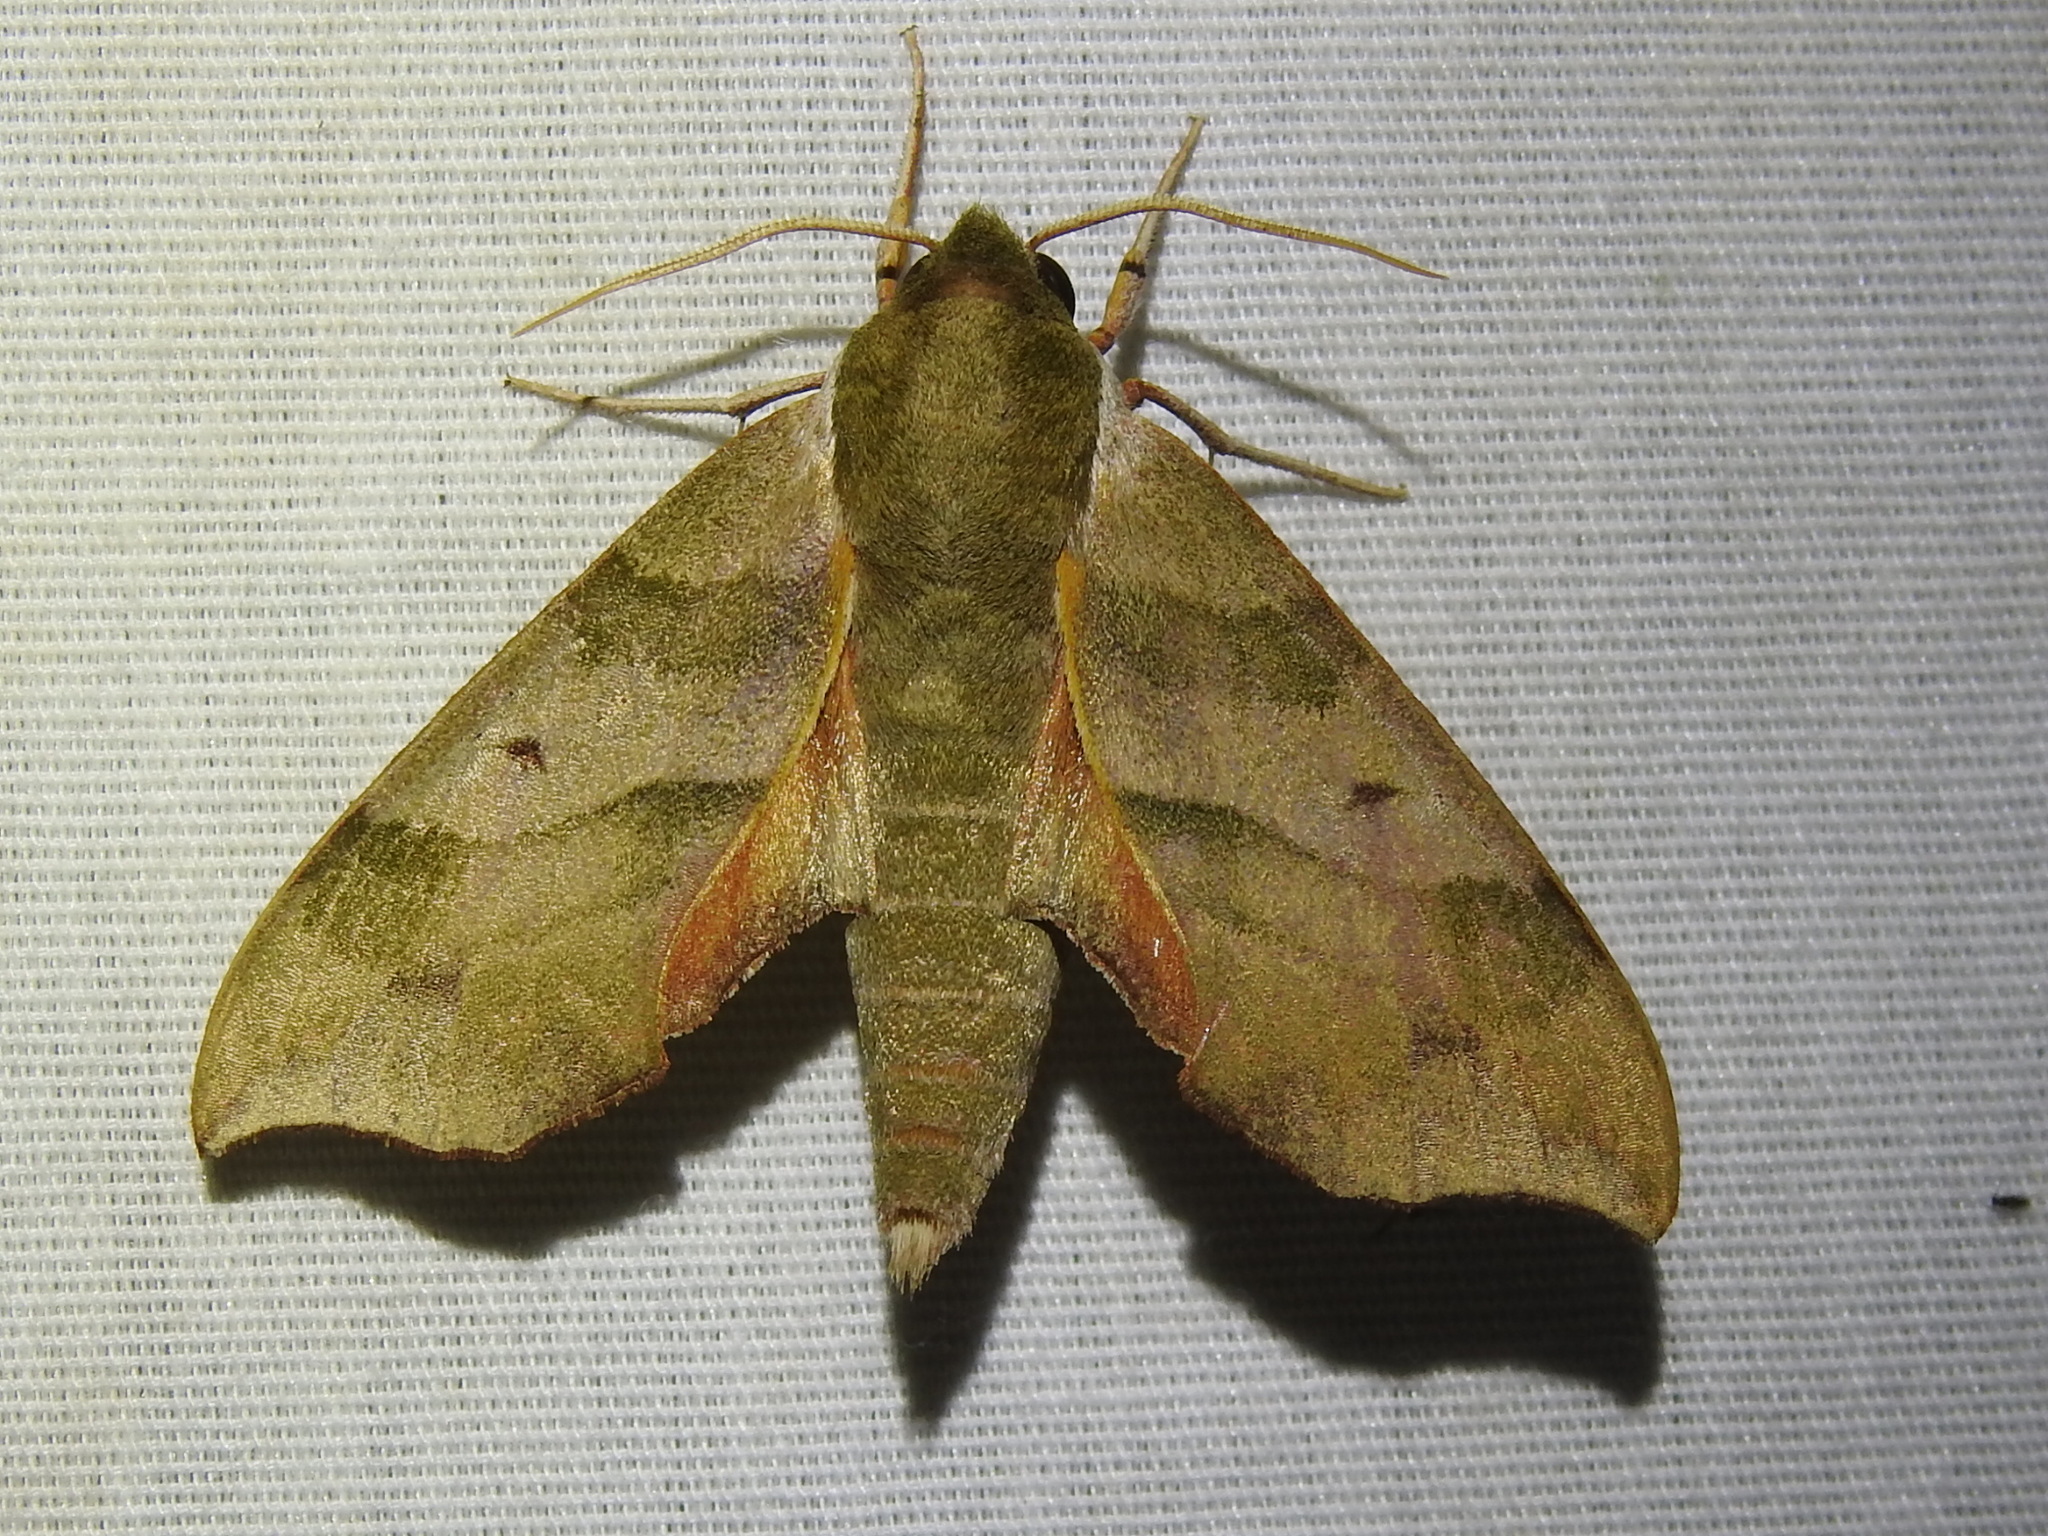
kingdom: Animalia
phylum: Arthropoda
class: Insecta
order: Lepidoptera
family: Sphingidae
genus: Darapsa
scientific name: Darapsa myron
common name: Hog sphinx
